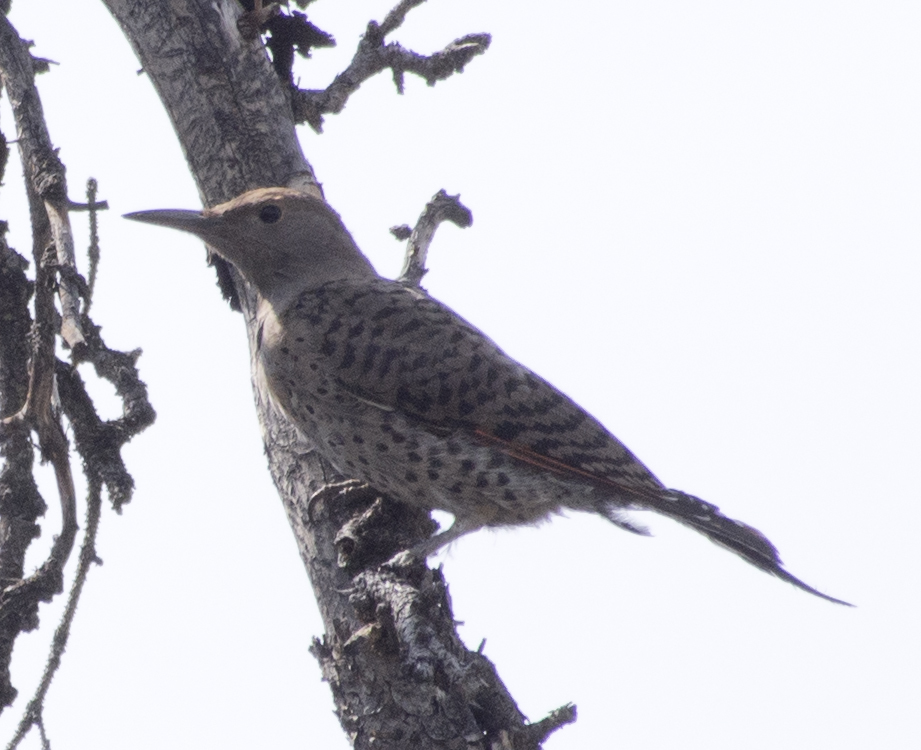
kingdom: Animalia
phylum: Chordata
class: Aves
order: Piciformes
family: Picidae
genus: Colaptes
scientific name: Colaptes auratus
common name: Northern flicker
